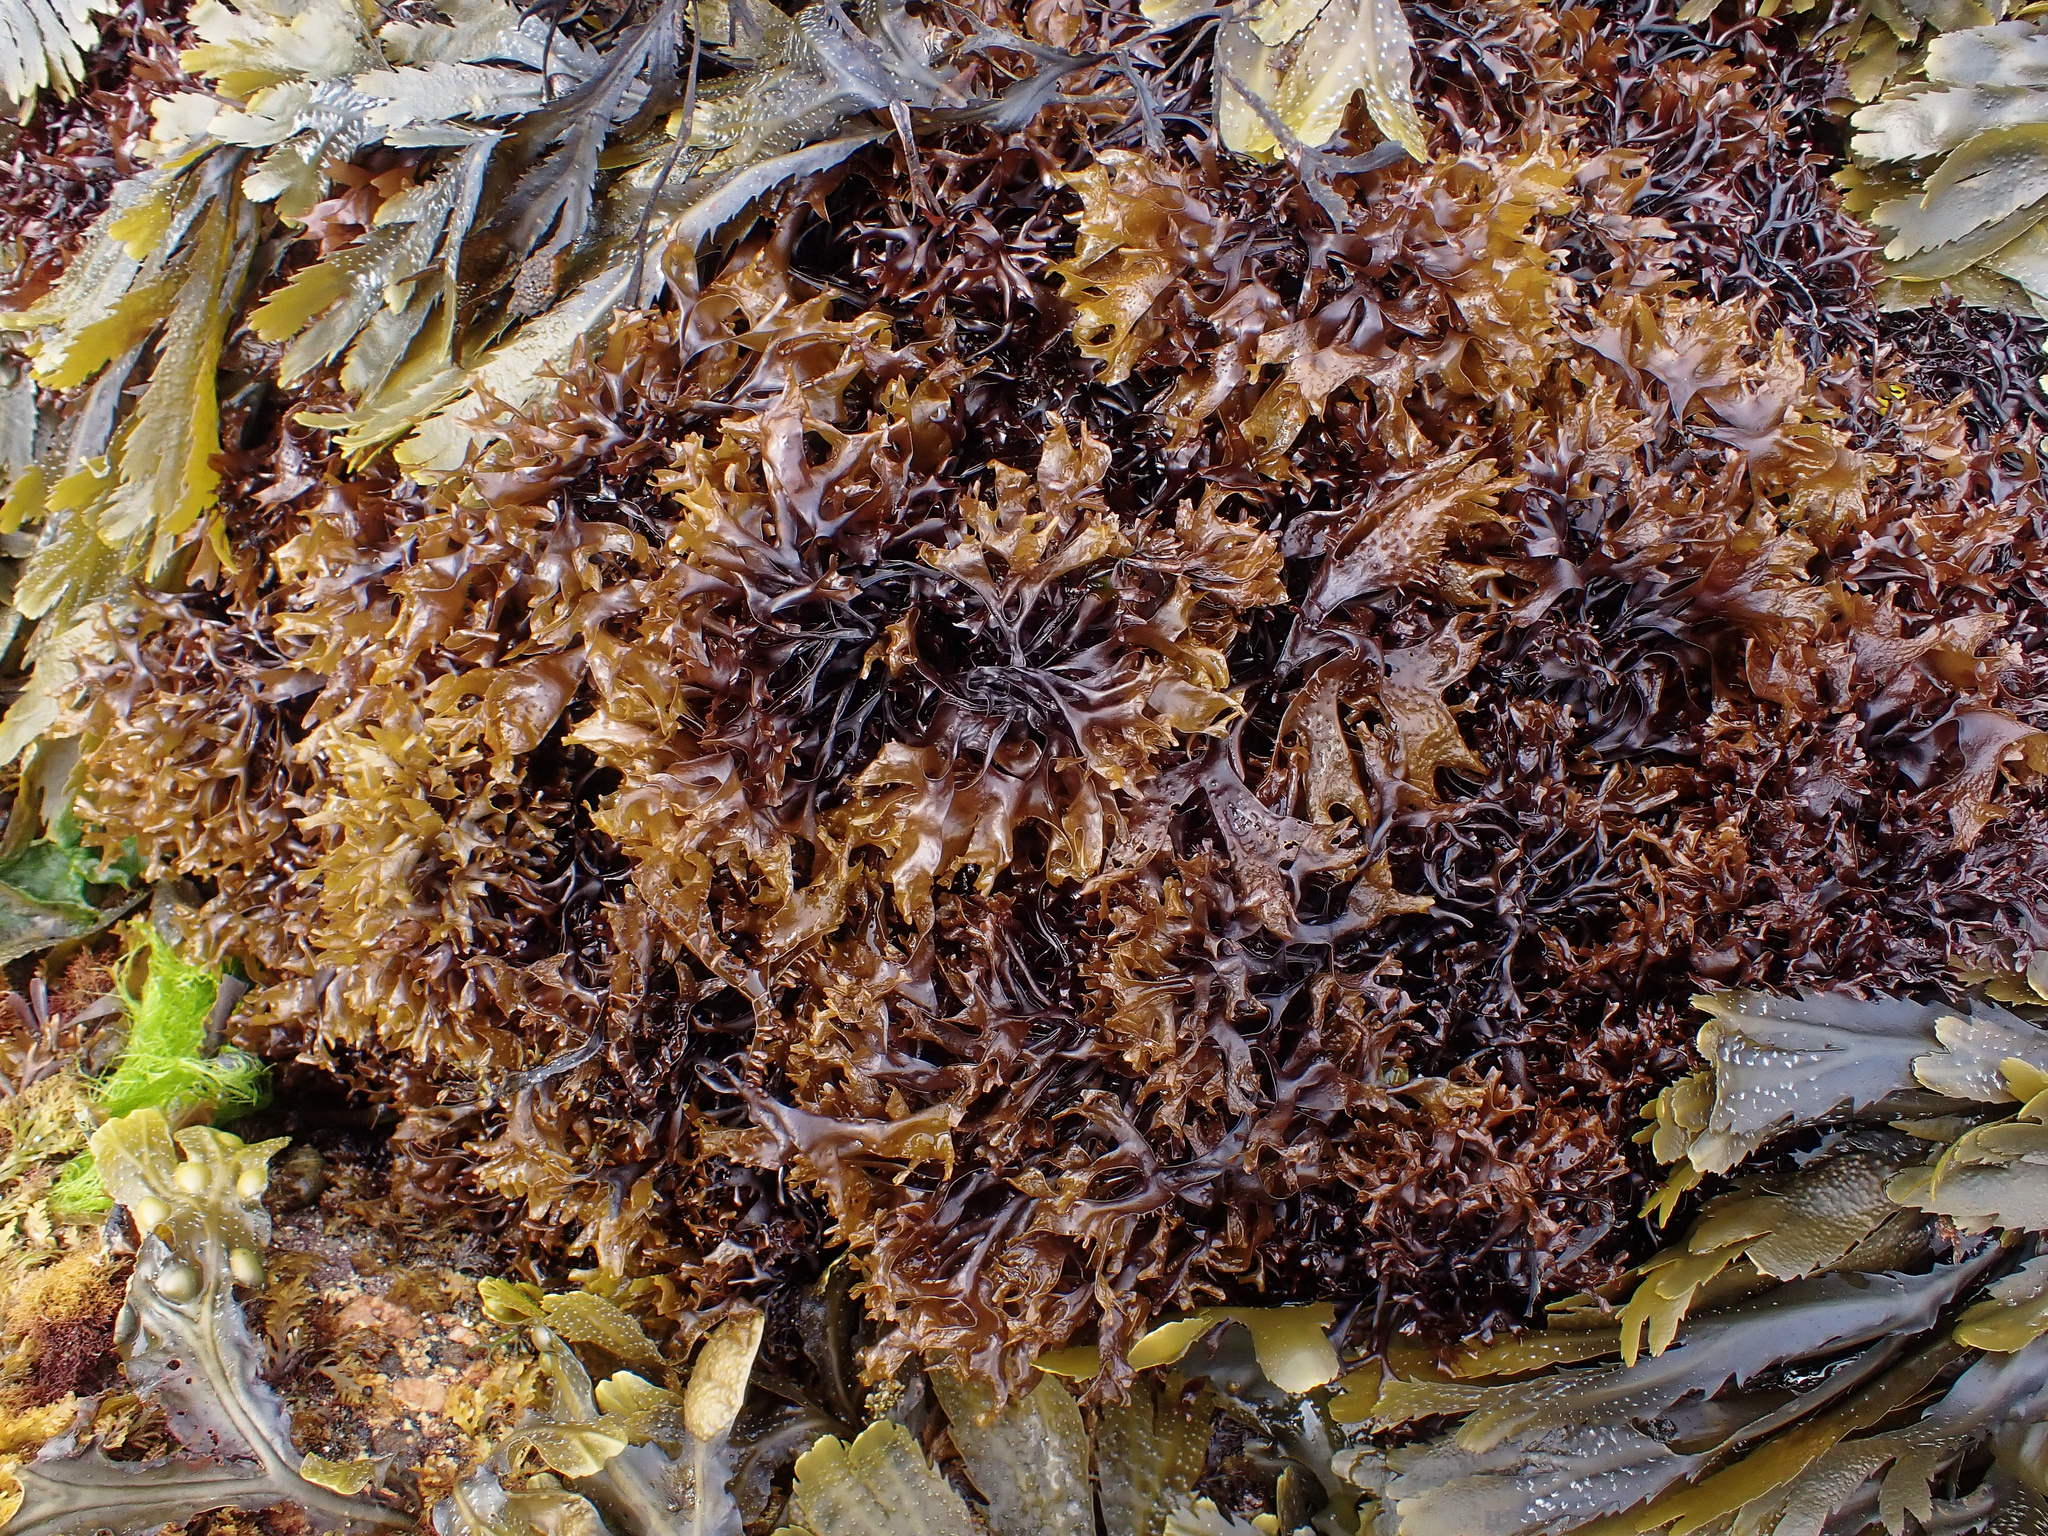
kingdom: Plantae
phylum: Rhodophyta
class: Florideophyceae
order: Gigartinales
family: Phyllophoraceae
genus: Mastocarpus
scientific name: Mastocarpus stellatus
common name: False irish moss
